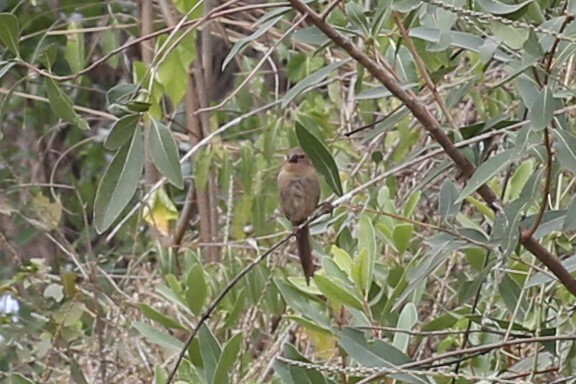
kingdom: Animalia
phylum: Chordata
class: Aves
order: Passeriformes
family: Estrildidae
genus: Neochmia
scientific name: Neochmia phaeton
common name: Crimson finch
